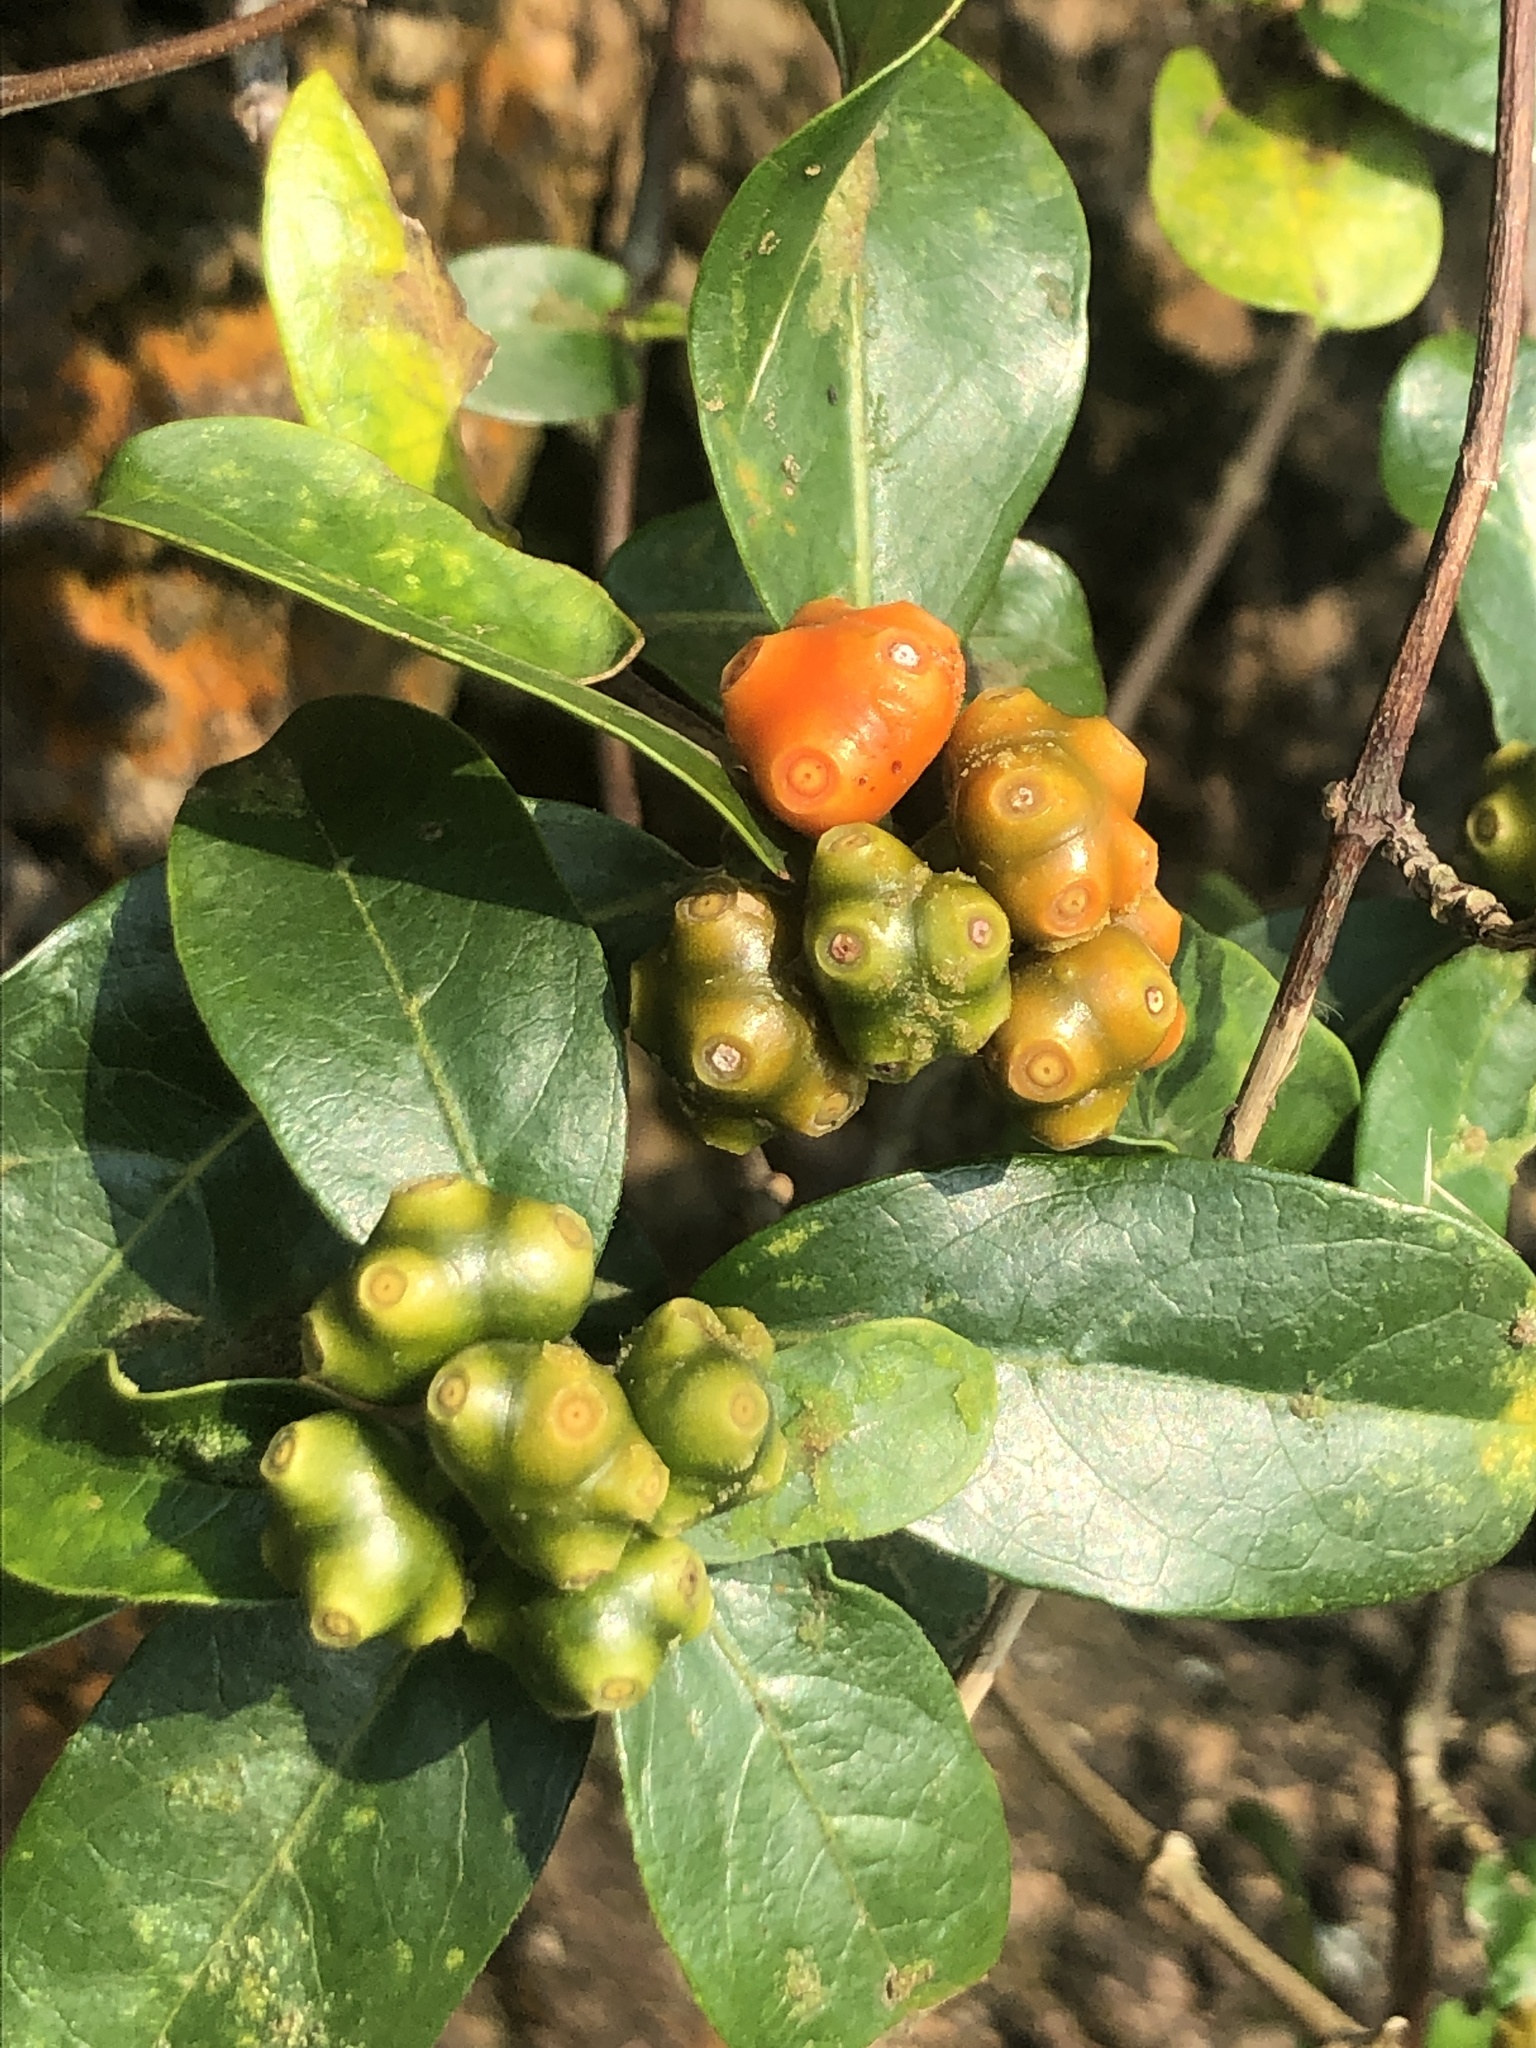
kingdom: Plantae
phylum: Tracheophyta
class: Magnoliopsida
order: Gentianales
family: Rubiaceae
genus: Gynochthodes
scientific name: Gynochthodes parvifolia
